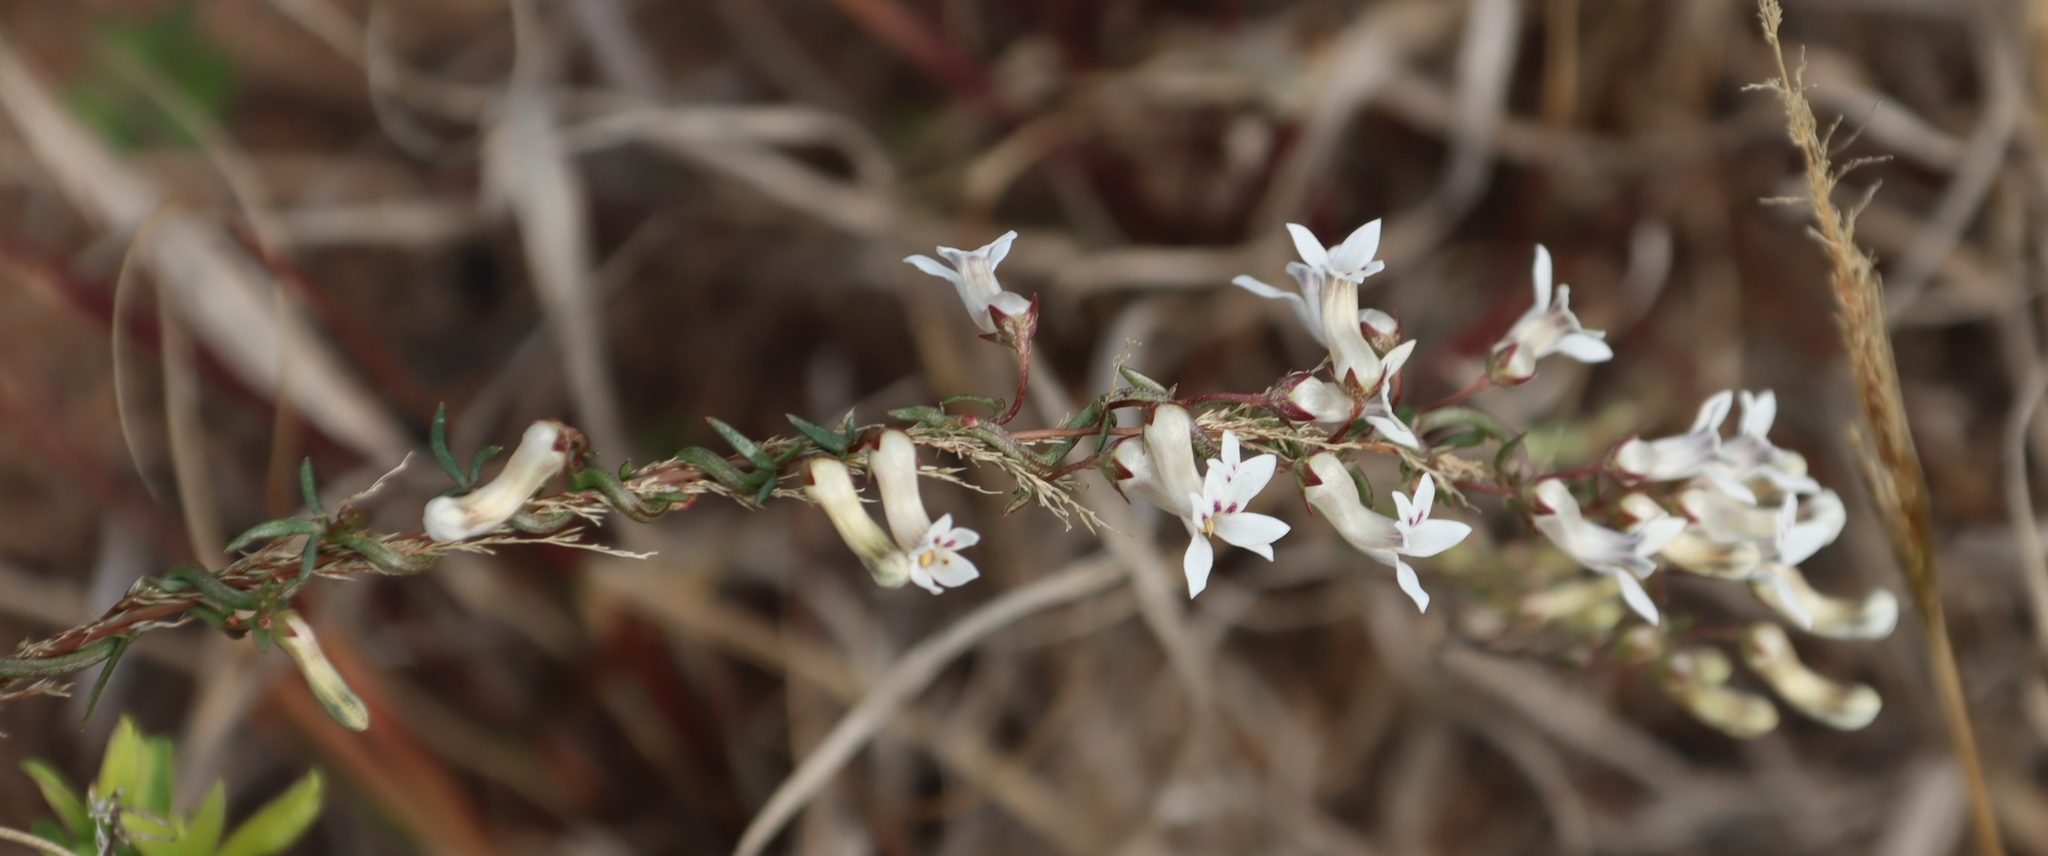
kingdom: Plantae
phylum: Tracheophyta
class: Magnoliopsida
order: Asterales
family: Campanulaceae
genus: Cyphia
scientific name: Cyphia digitata
